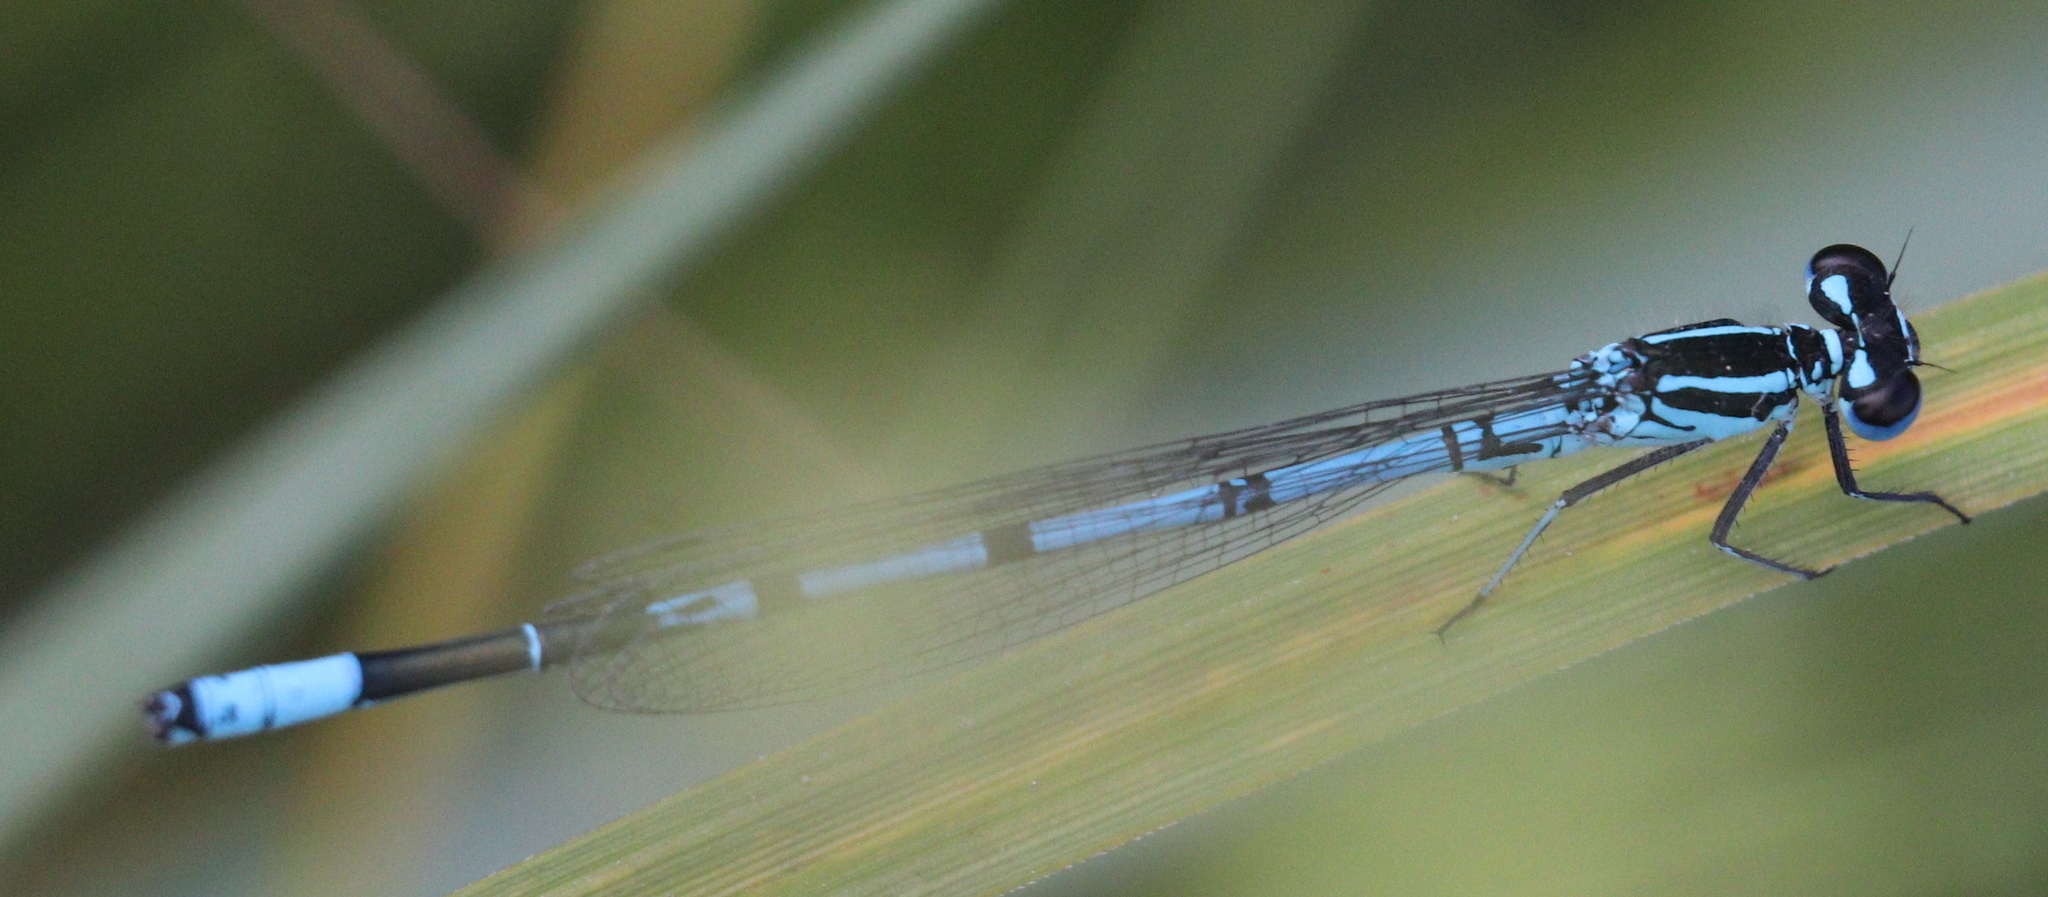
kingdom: Animalia
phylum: Arthropoda
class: Insecta
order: Odonata
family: Coenagrionidae
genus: Coenagrion
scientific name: Coenagrion puella
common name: Azure damselfly
